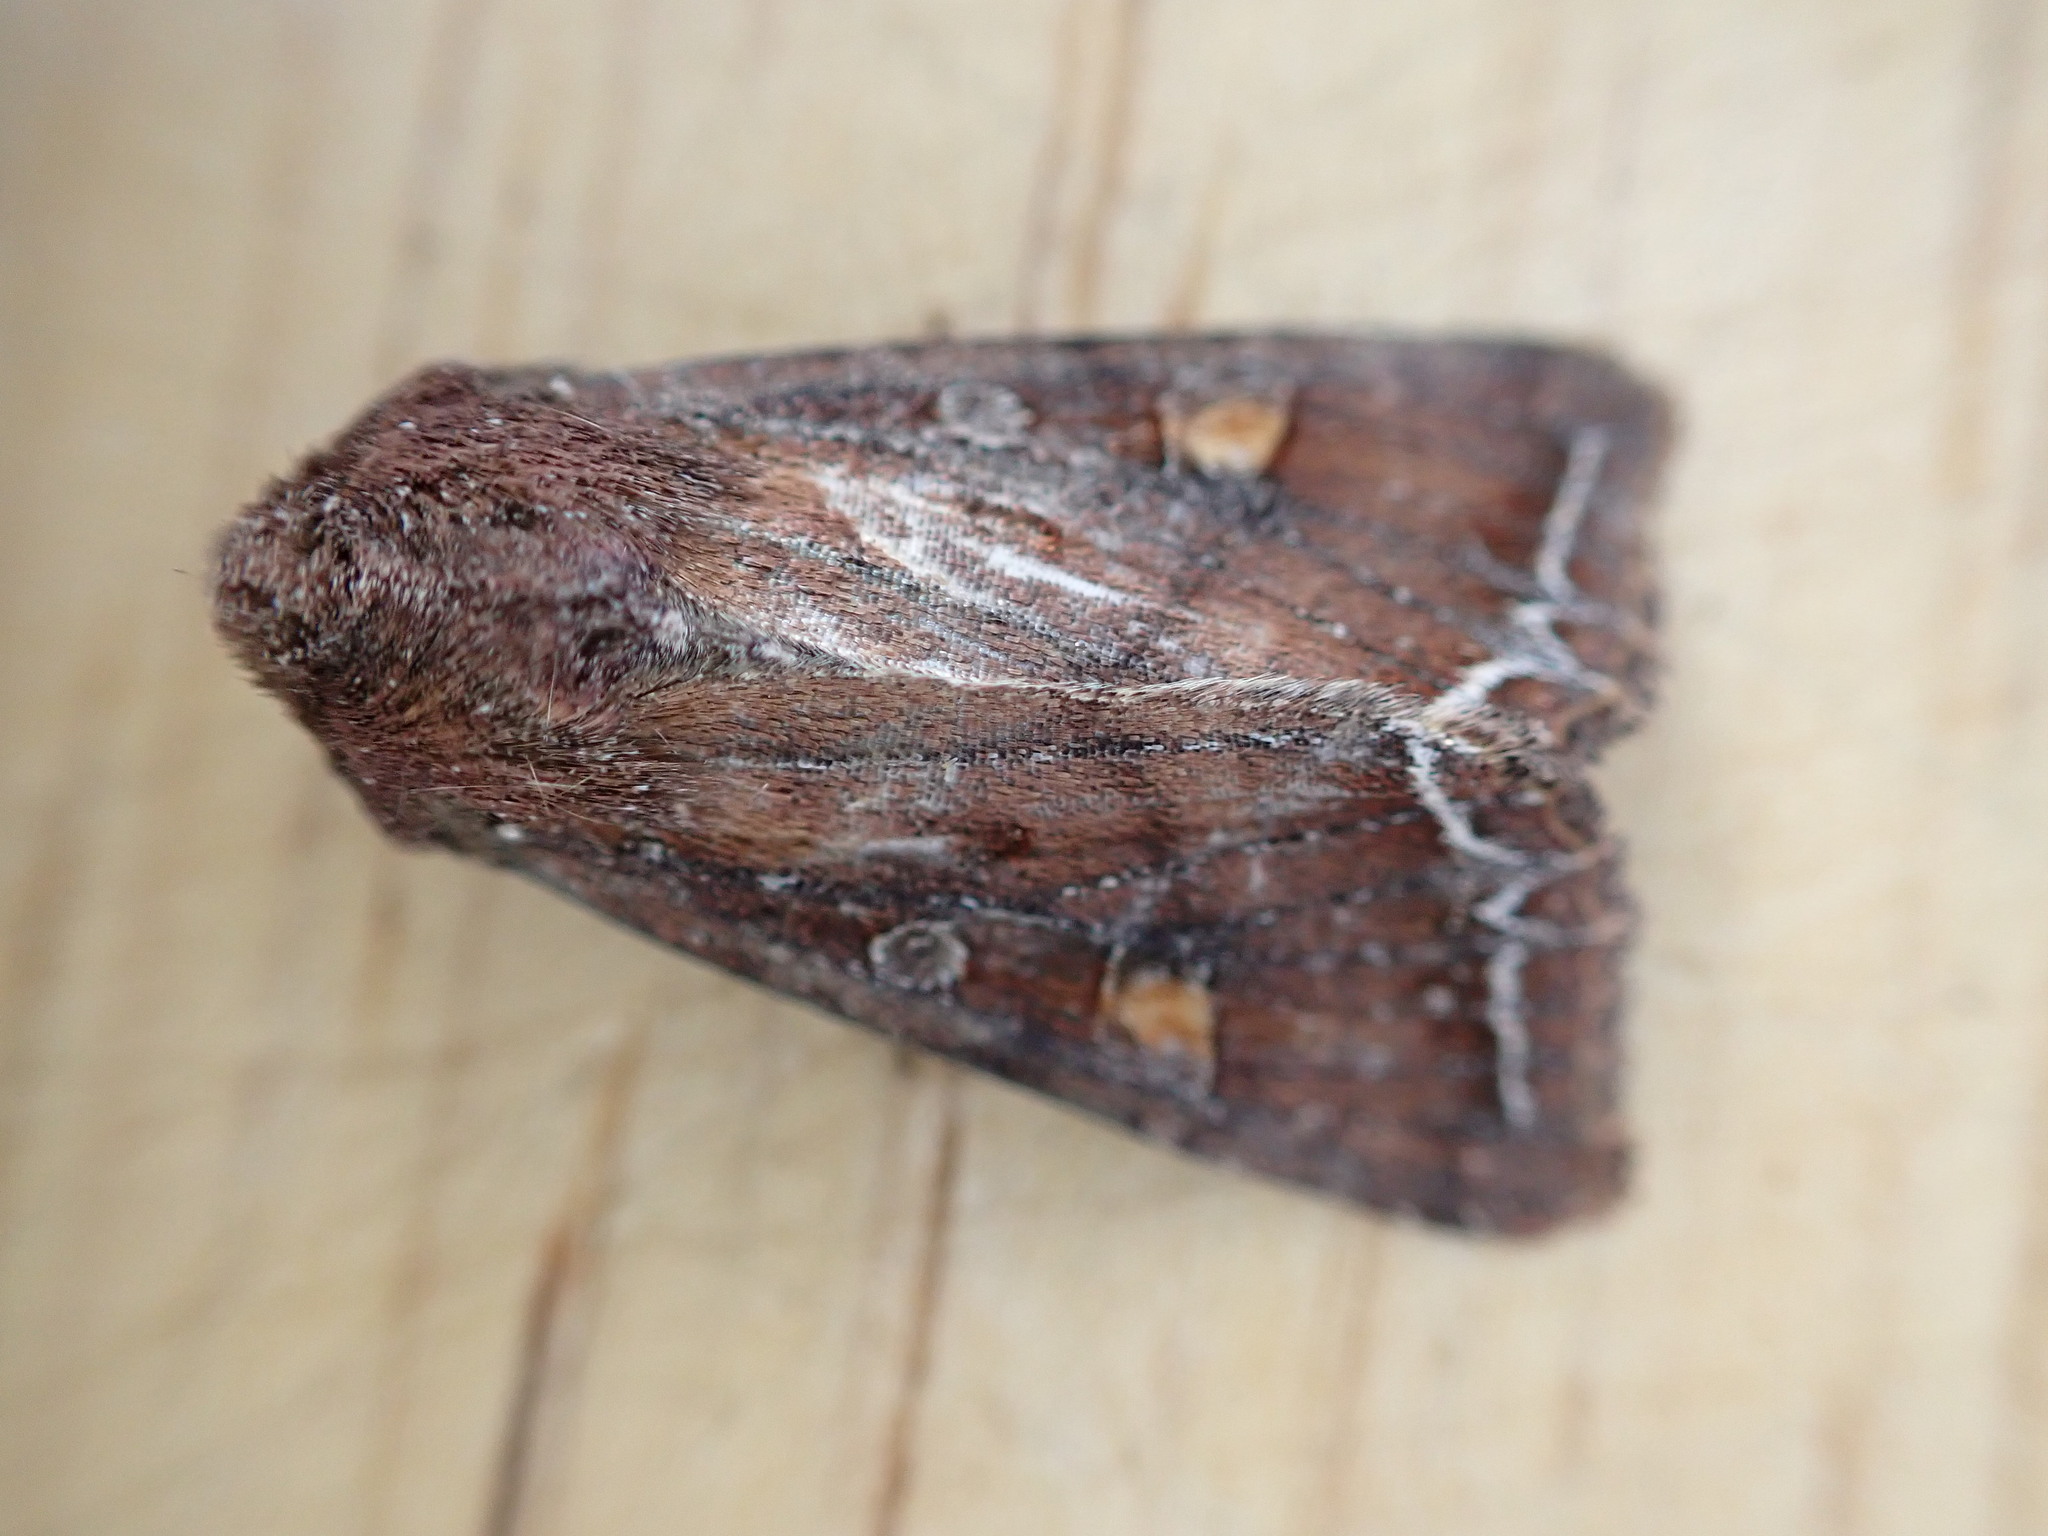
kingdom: Animalia
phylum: Arthropoda
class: Insecta
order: Lepidoptera
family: Noctuidae
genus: Lacanobia
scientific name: Lacanobia oleracea
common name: Bright-line brown-eye
